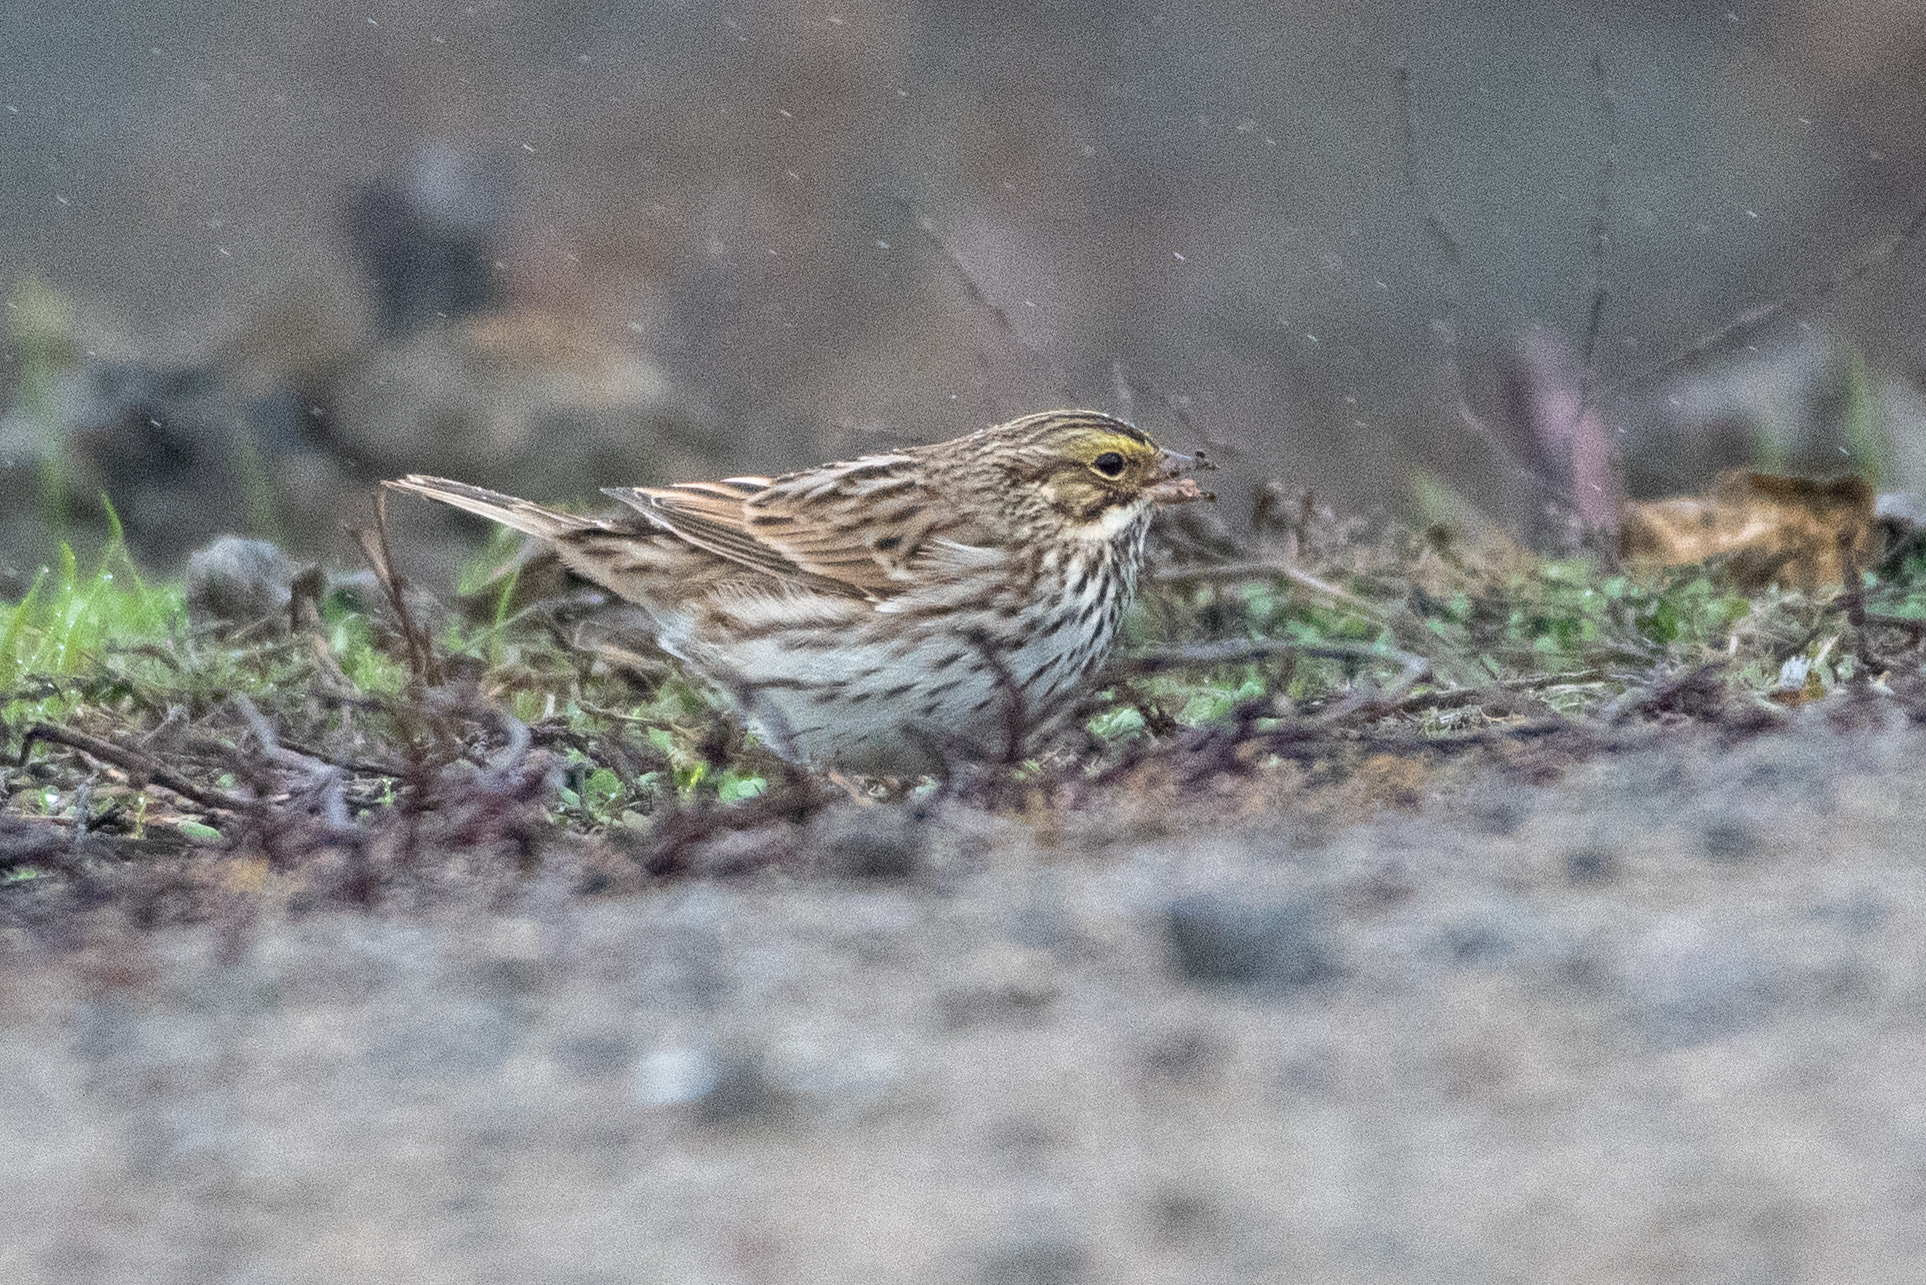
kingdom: Animalia
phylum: Chordata
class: Aves
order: Passeriformes
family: Passerellidae
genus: Passerculus
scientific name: Passerculus sandwichensis
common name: Savannah sparrow
